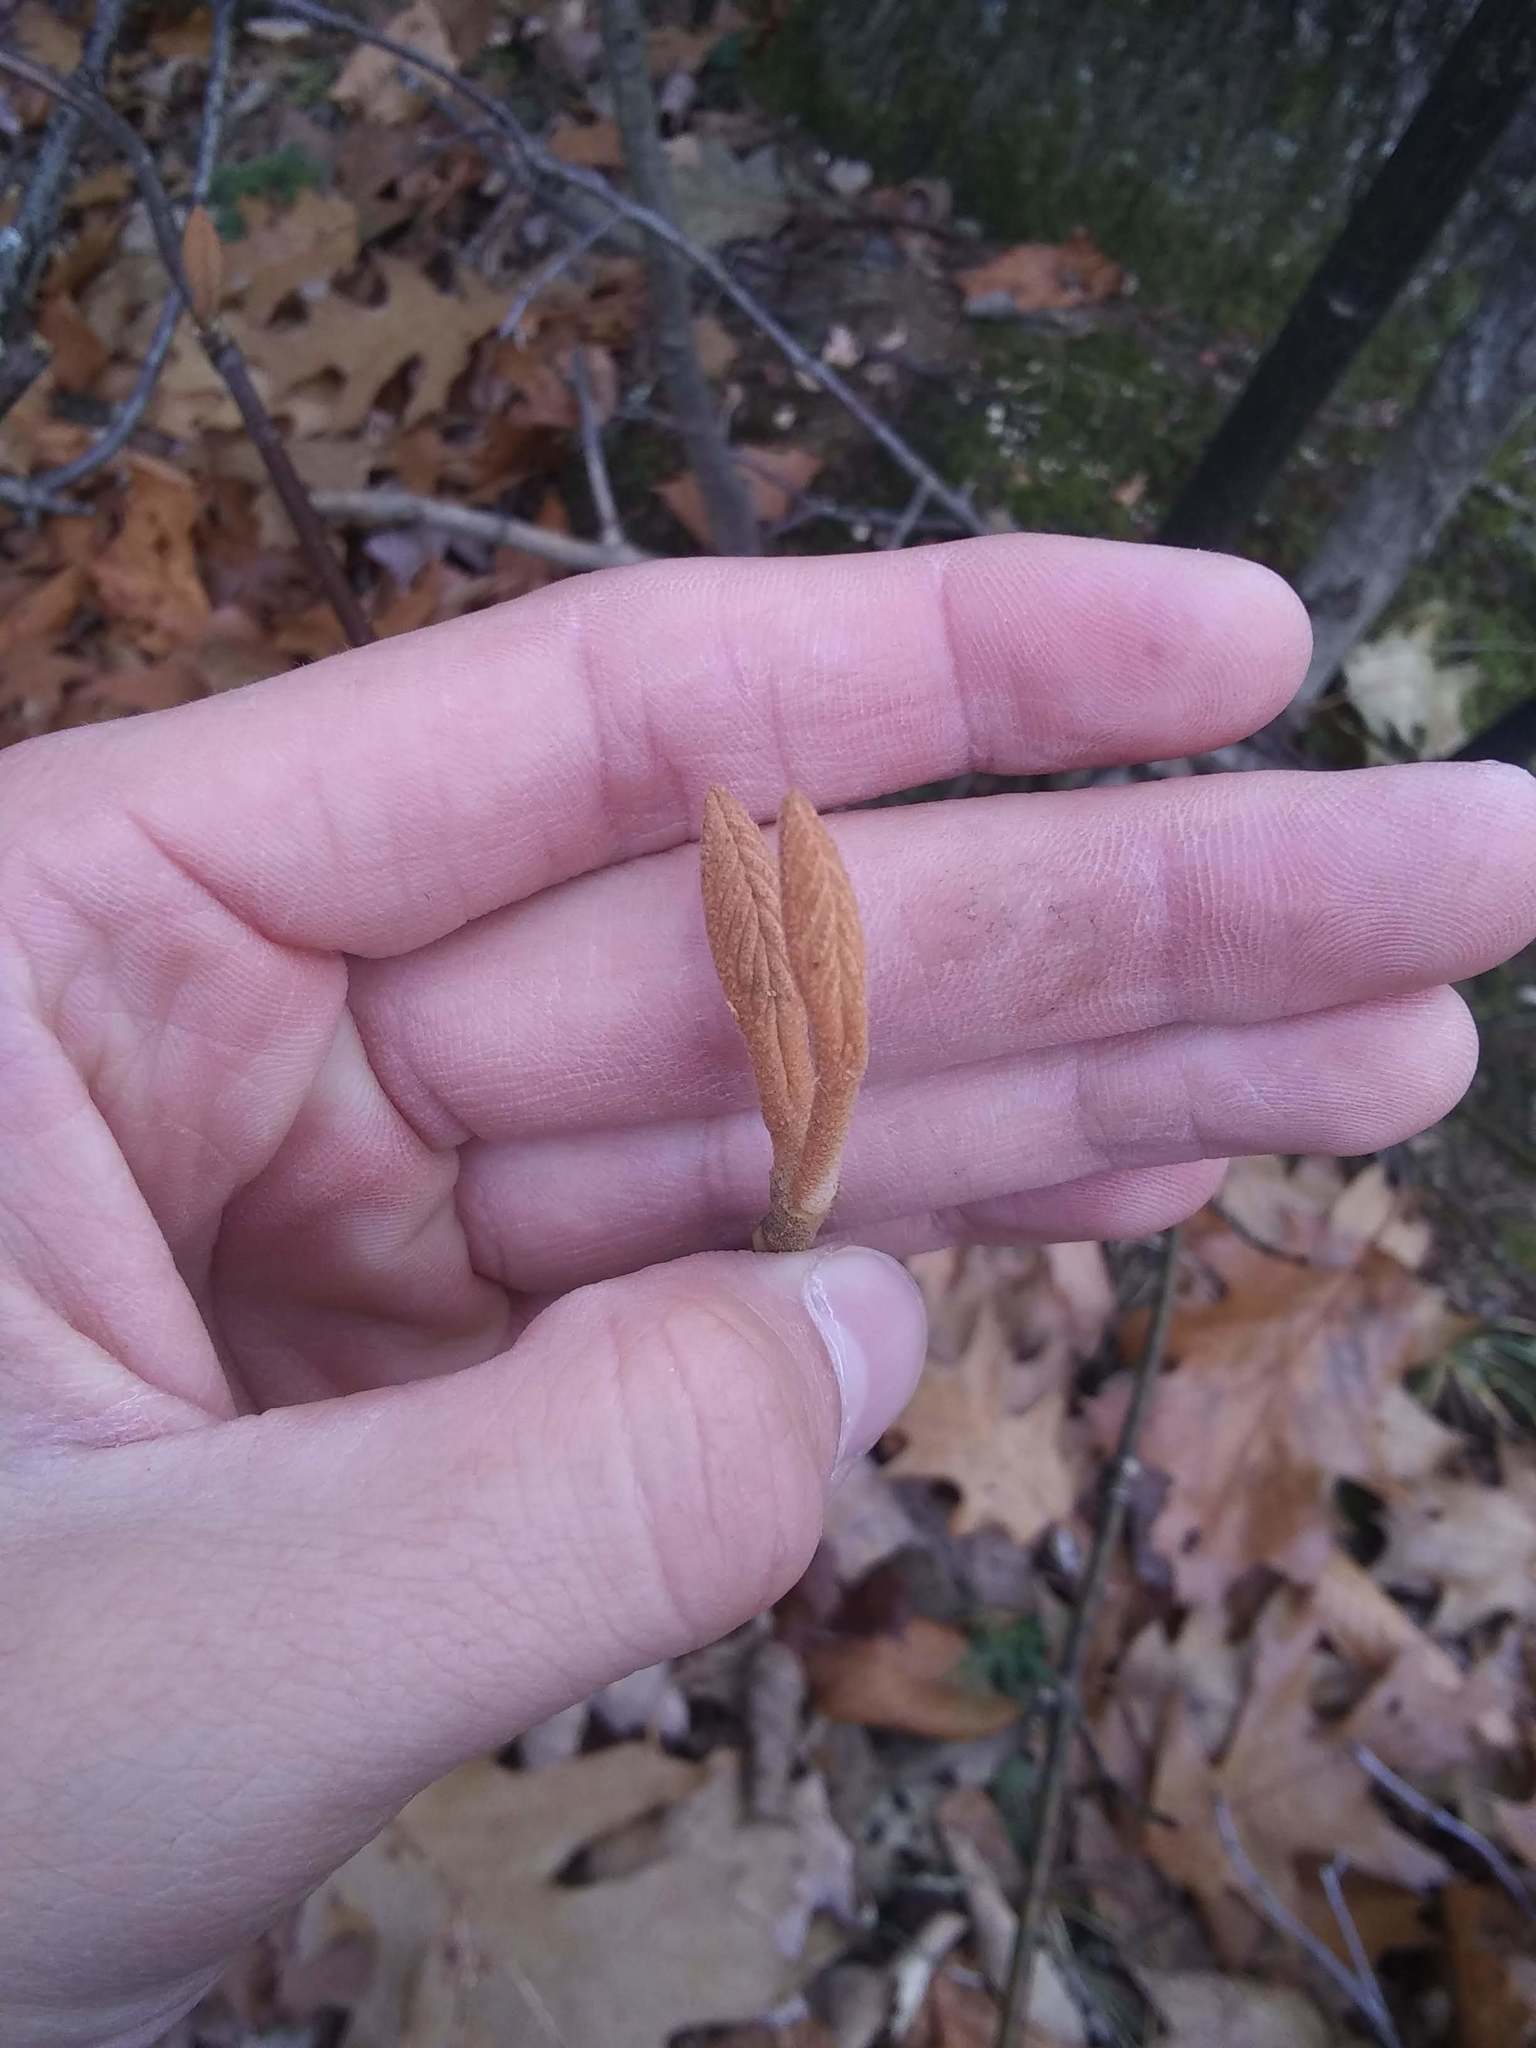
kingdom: Plantae
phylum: Tracheophyta
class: Magnoliopsida
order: Dipsacales
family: Viburnaceae
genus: Viburnum
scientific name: Viburnum lantanoides
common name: Hobblebush
